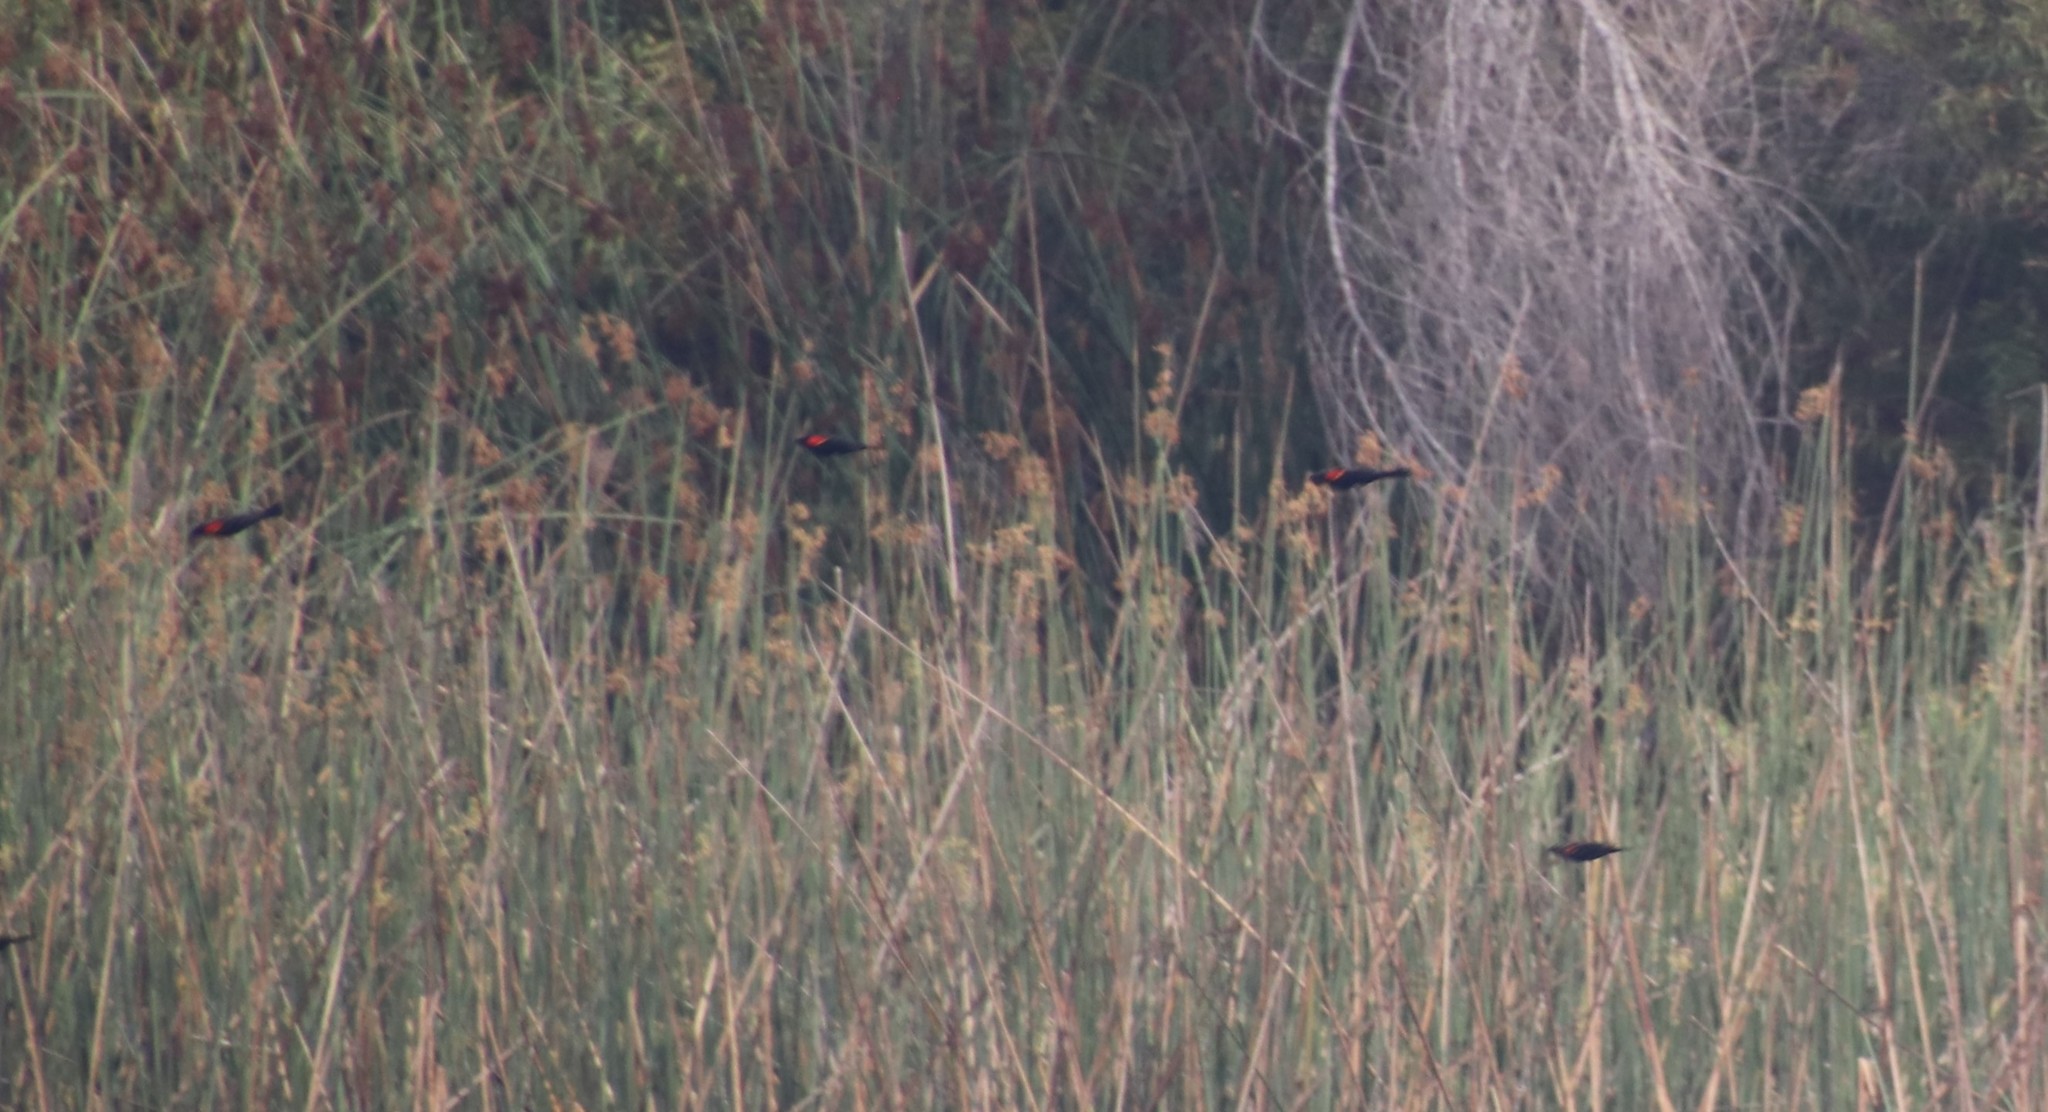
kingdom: Animalia
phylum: Chordata
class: Aves
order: Passeriformes
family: Icteridae
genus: Agelaius
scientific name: Agelaius phoeniceus
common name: Red-winged blackbird
